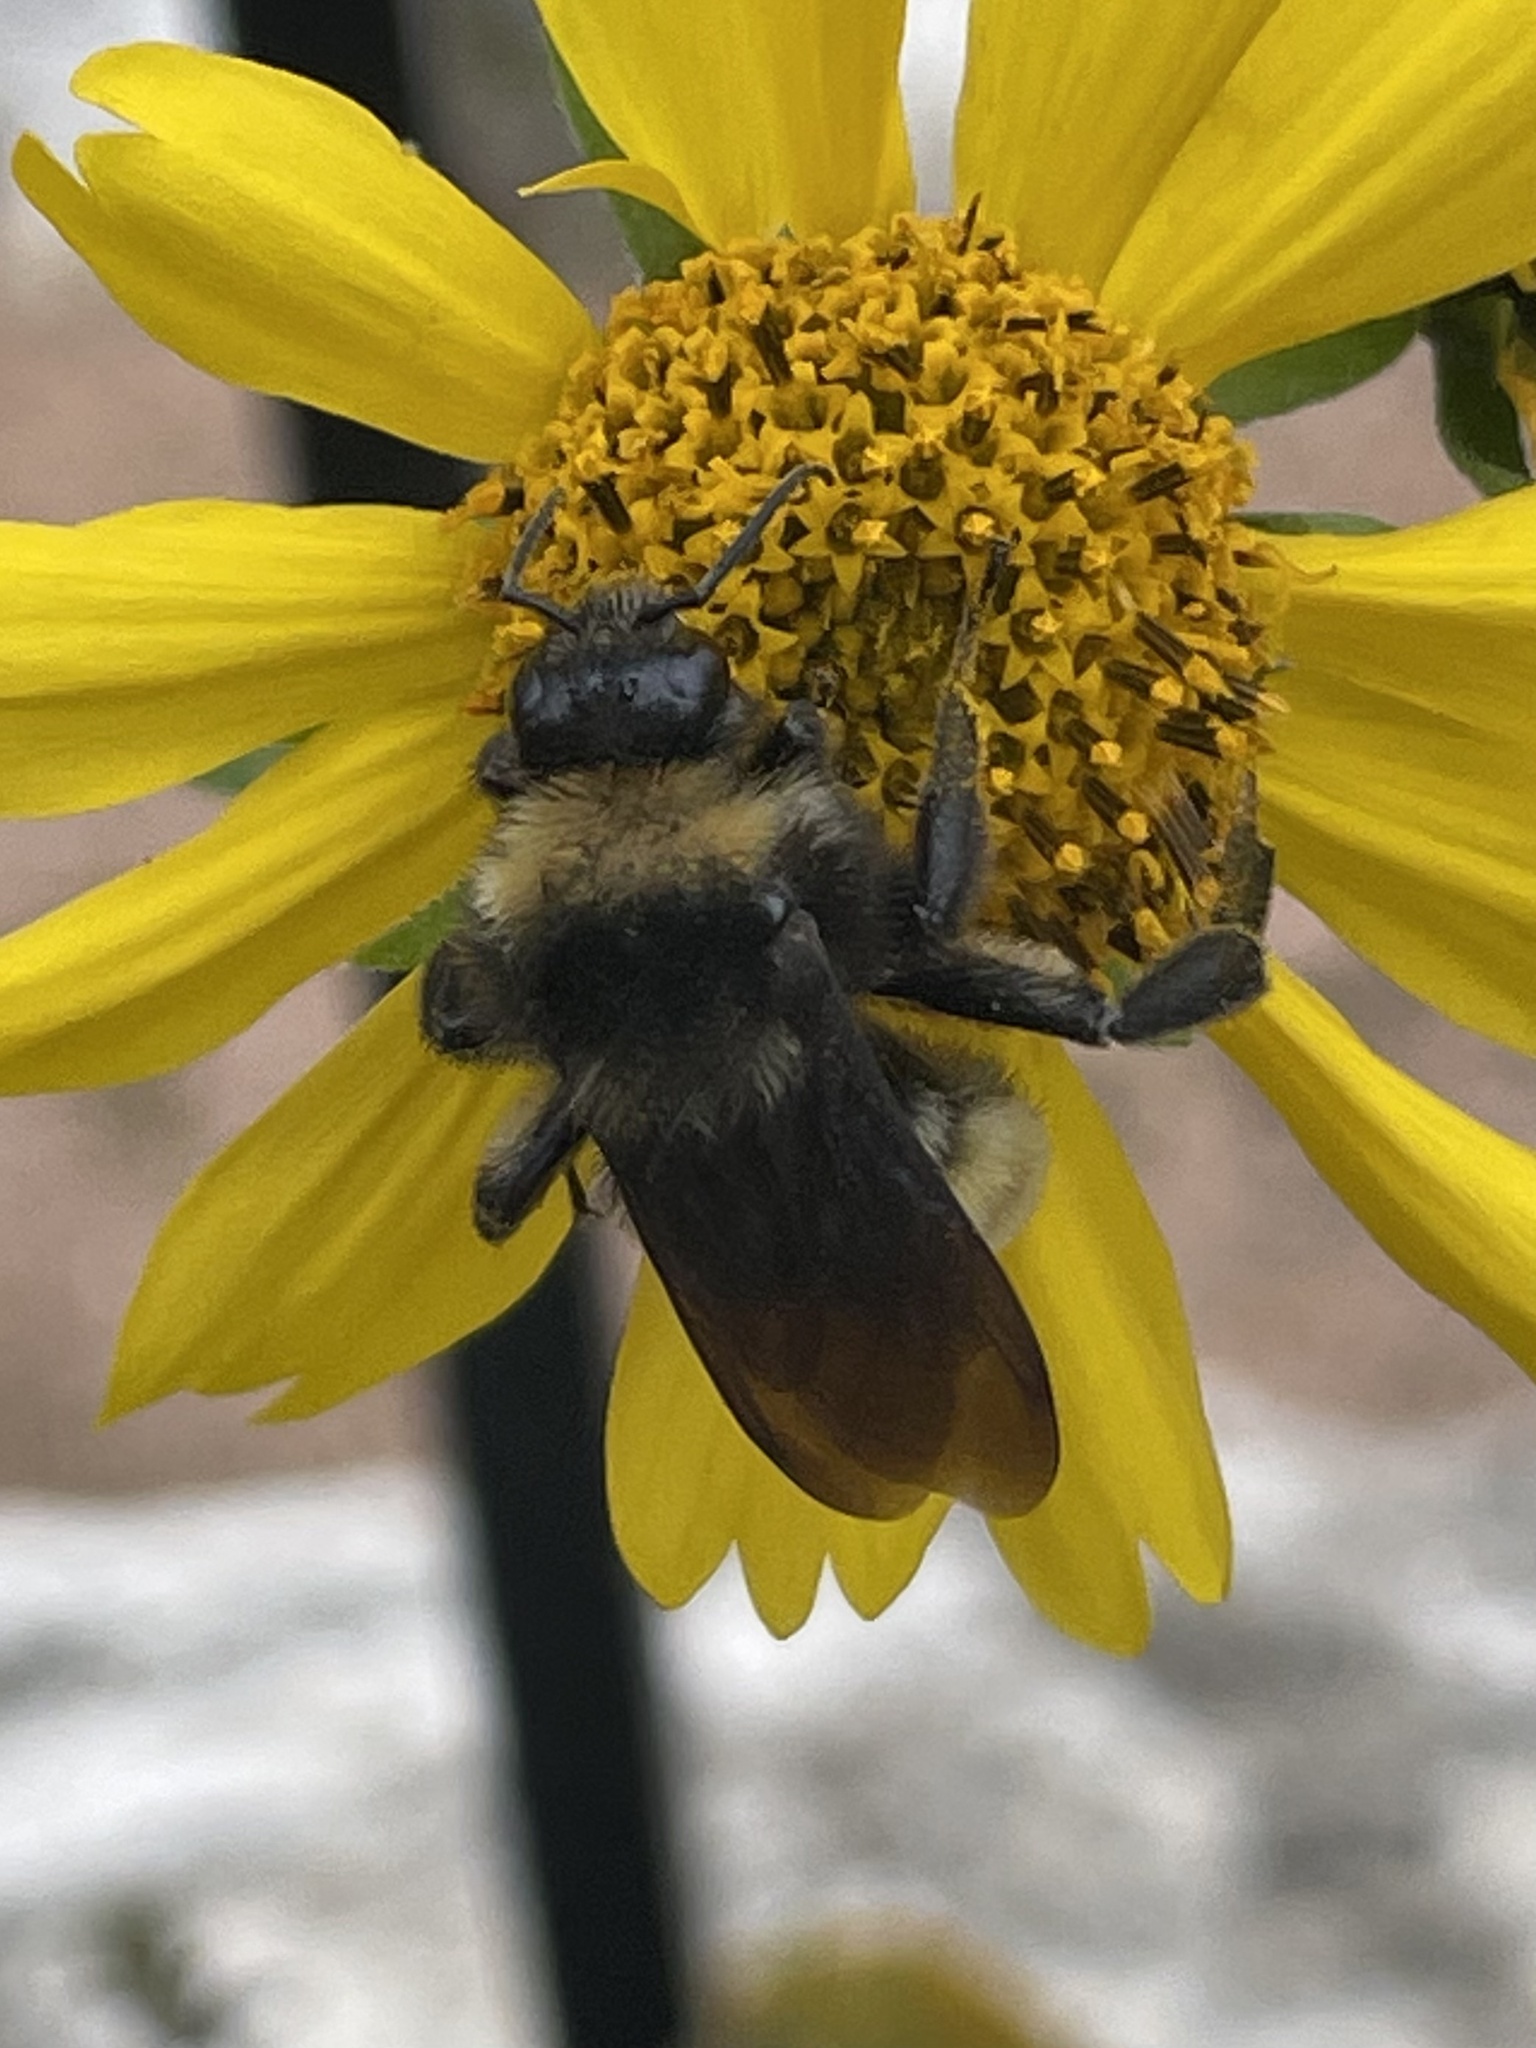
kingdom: Animalia
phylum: Arthropoda
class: Insecta
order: Hymenoptera
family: Apidae
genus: Bombus
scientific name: Bombus pensylvanicus
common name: Bumble bee
